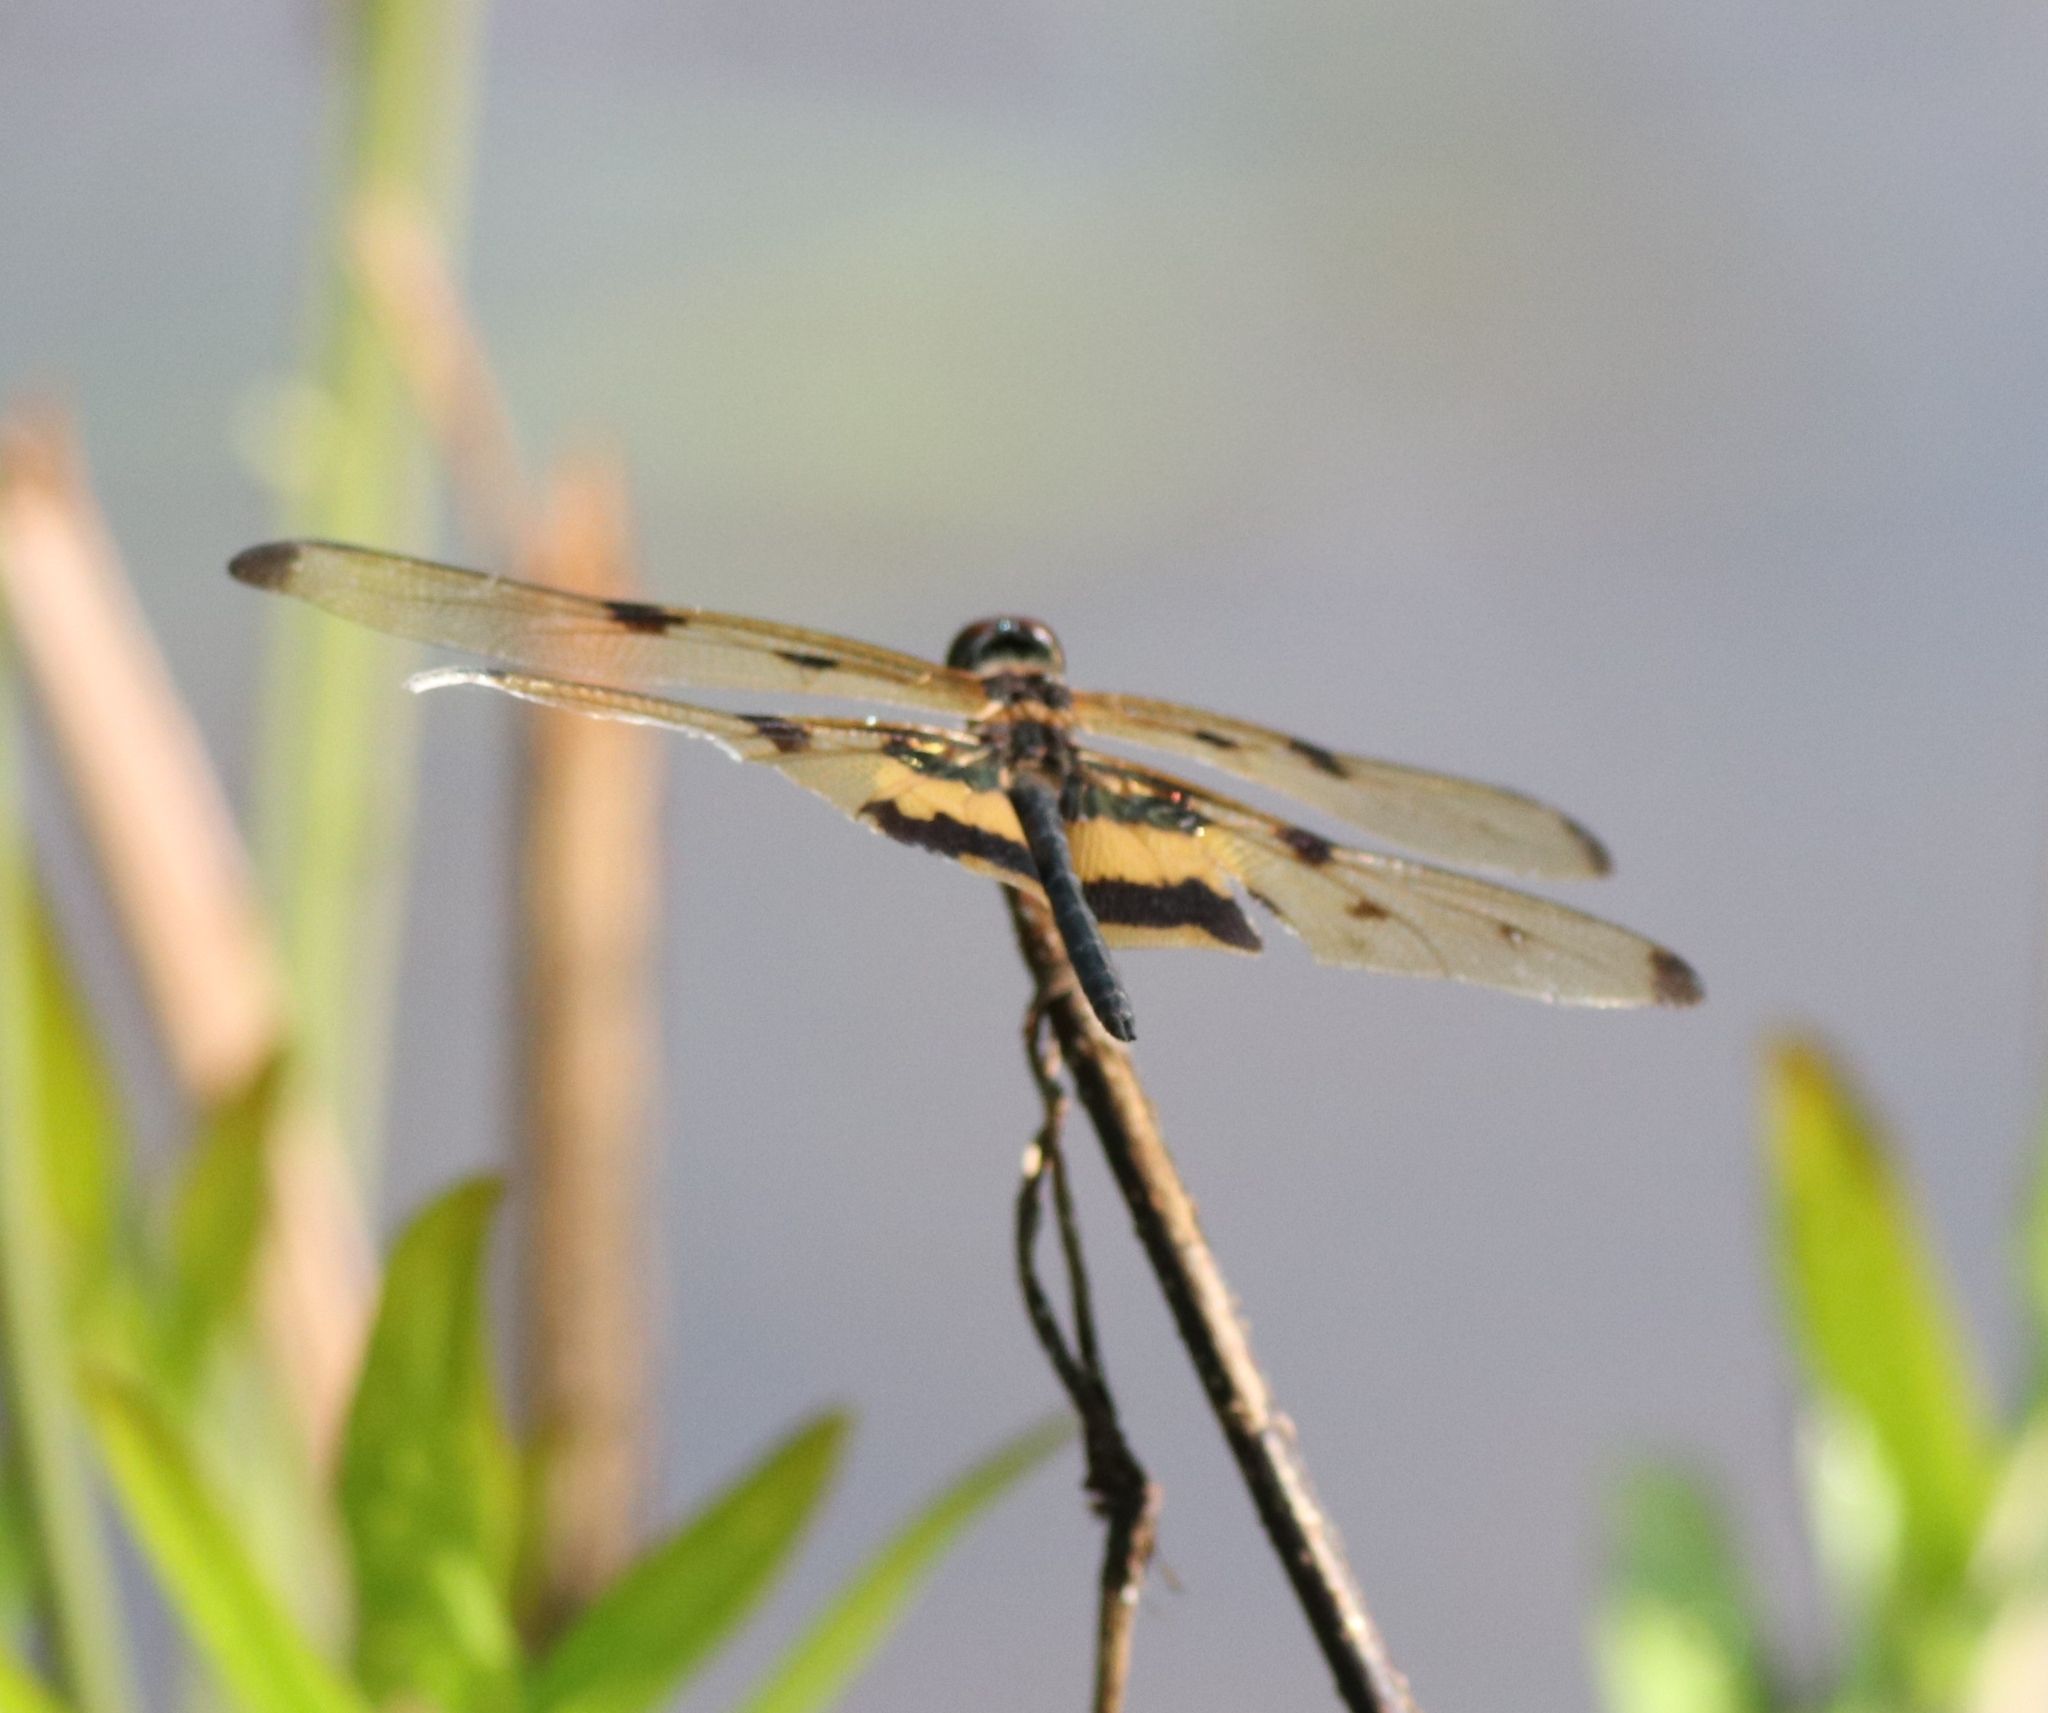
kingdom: Animalia
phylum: Arthropoda
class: Insecta
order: Odonata
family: Libellulidae
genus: Rhyothemis
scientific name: Rhyothemis variegata
